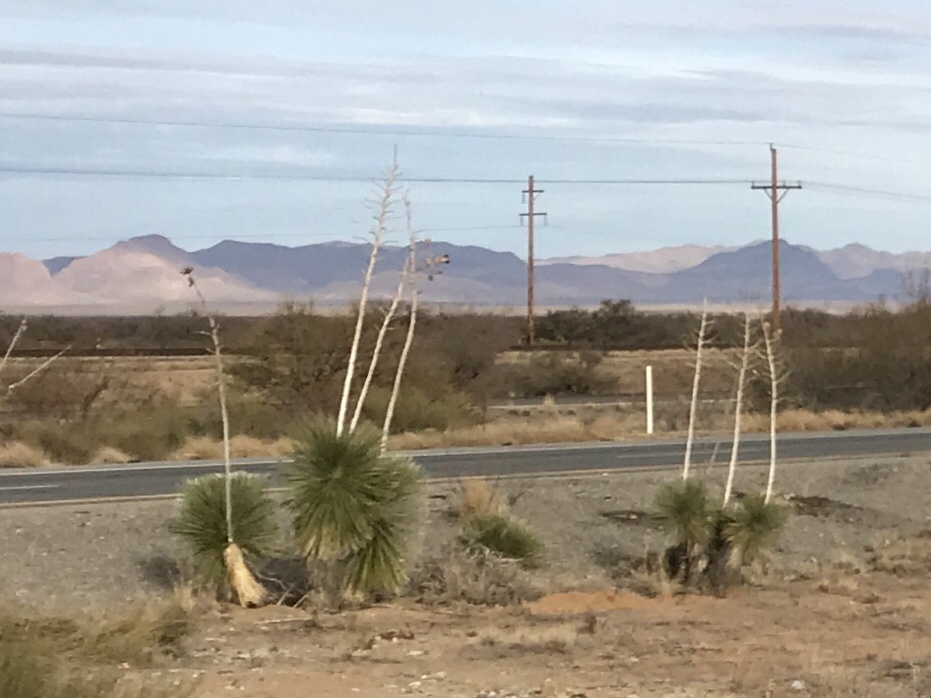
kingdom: Plantae
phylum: Tracheophyta
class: Liliopsida
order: Asparagales
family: Asparagaceae
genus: Yucca
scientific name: Yucca elata
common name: Palmella
